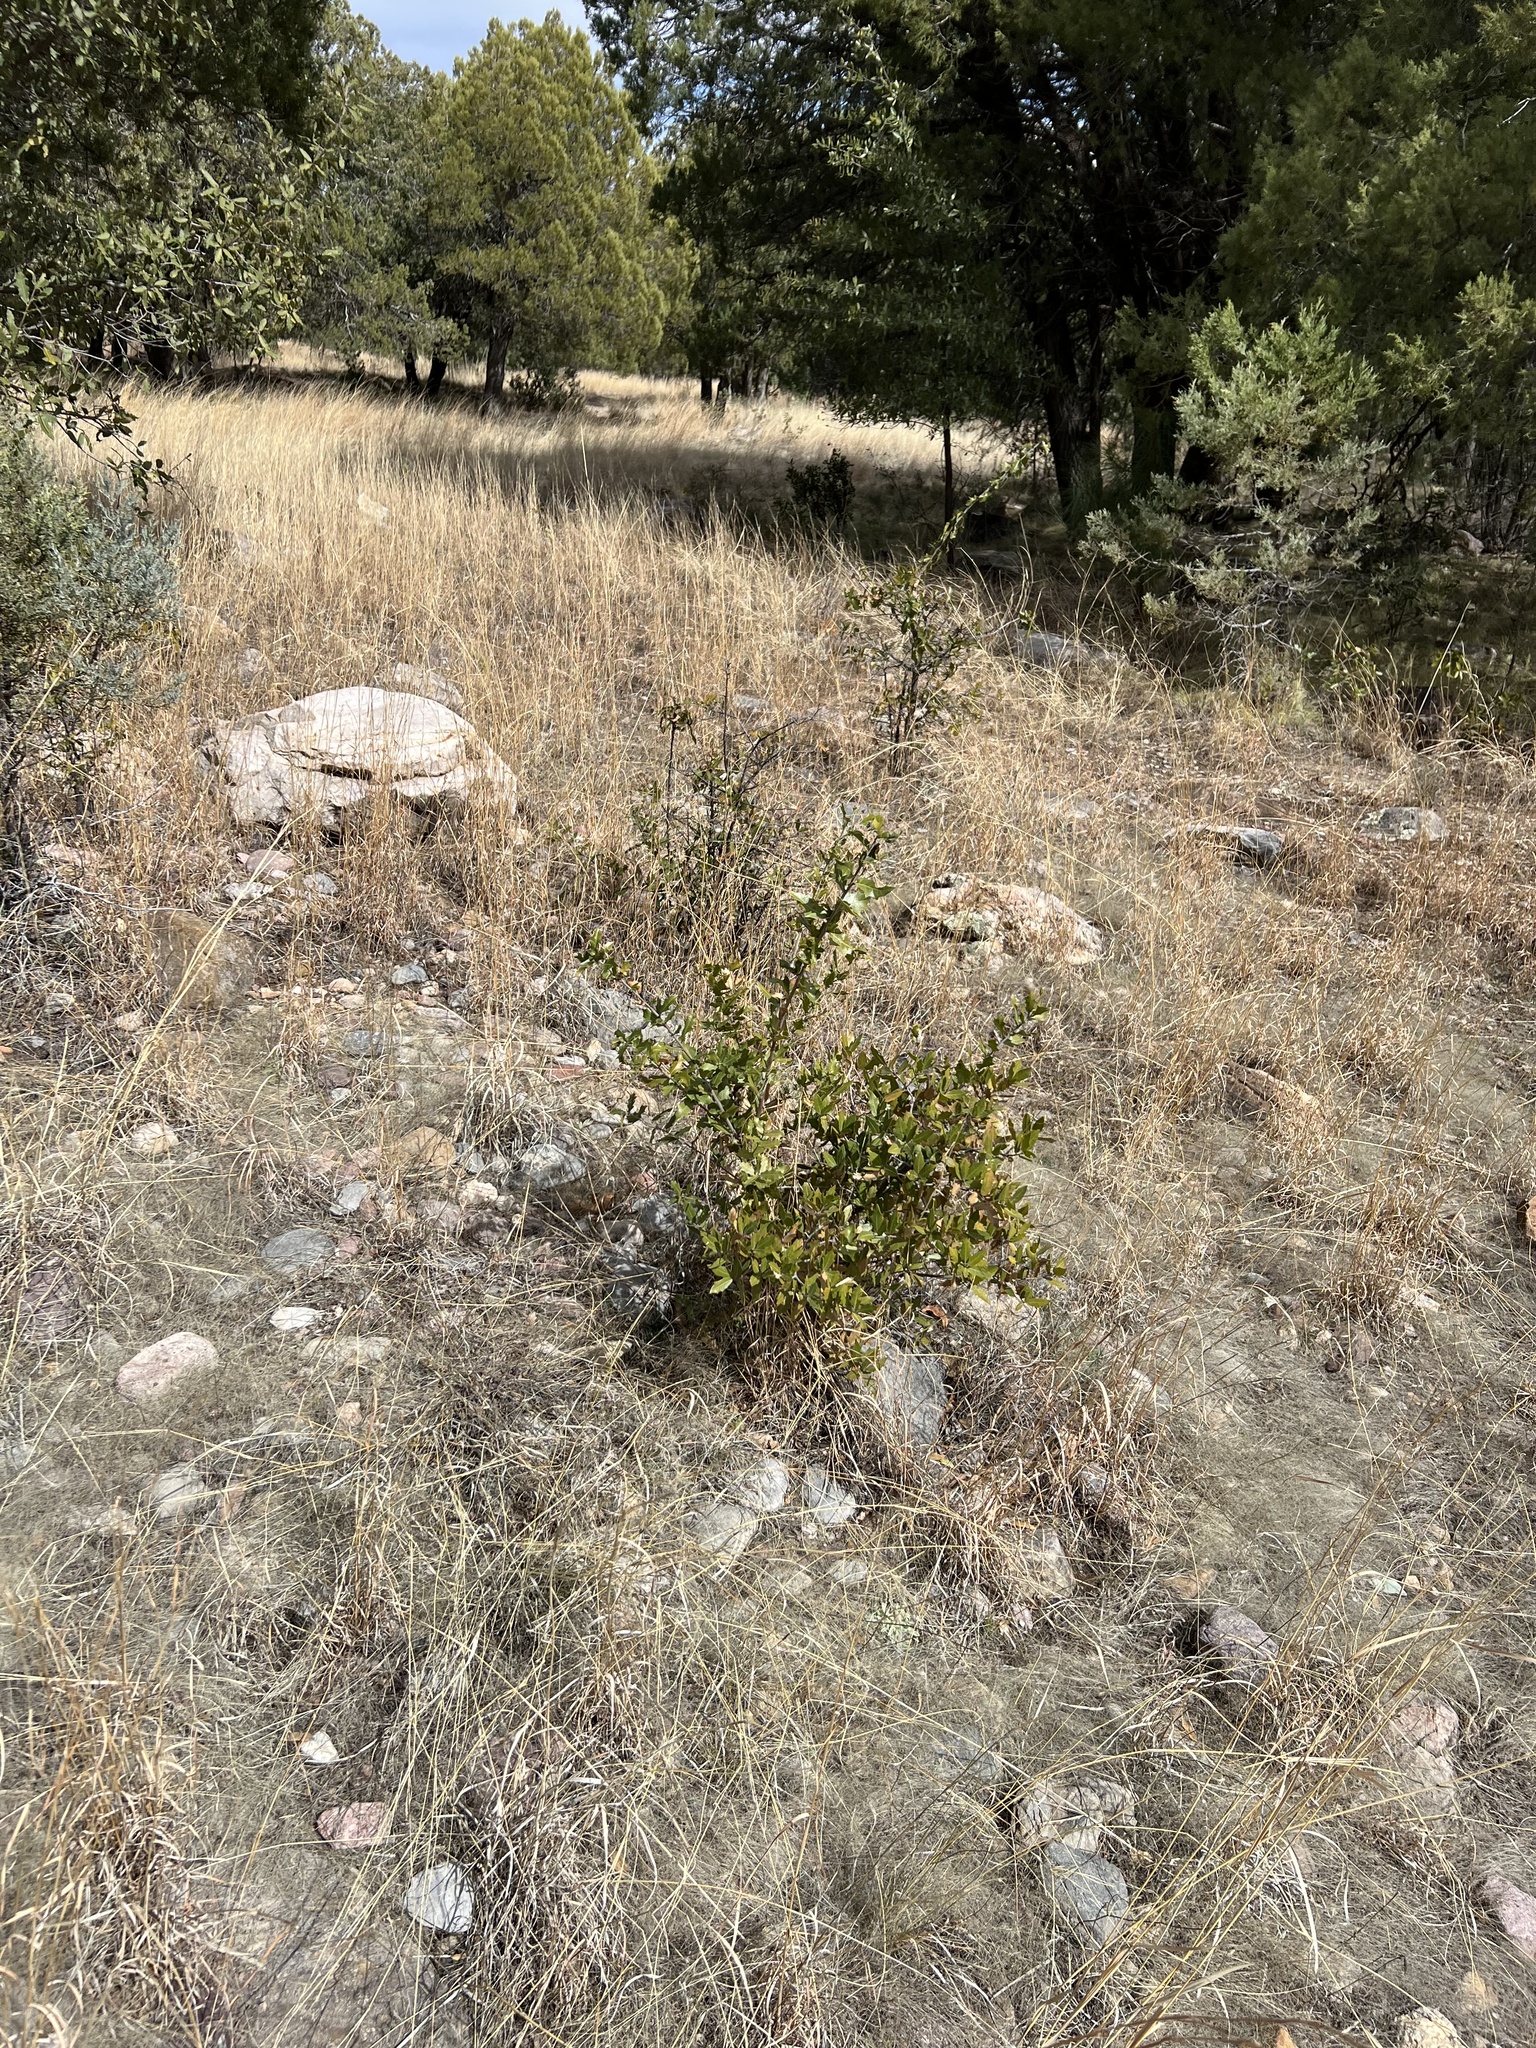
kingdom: Plantae
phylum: Tracheophyta
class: Magnoliopsida
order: Fagales
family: Fagaceae
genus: Quercus
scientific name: Quercus emoryi
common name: Emory oak
